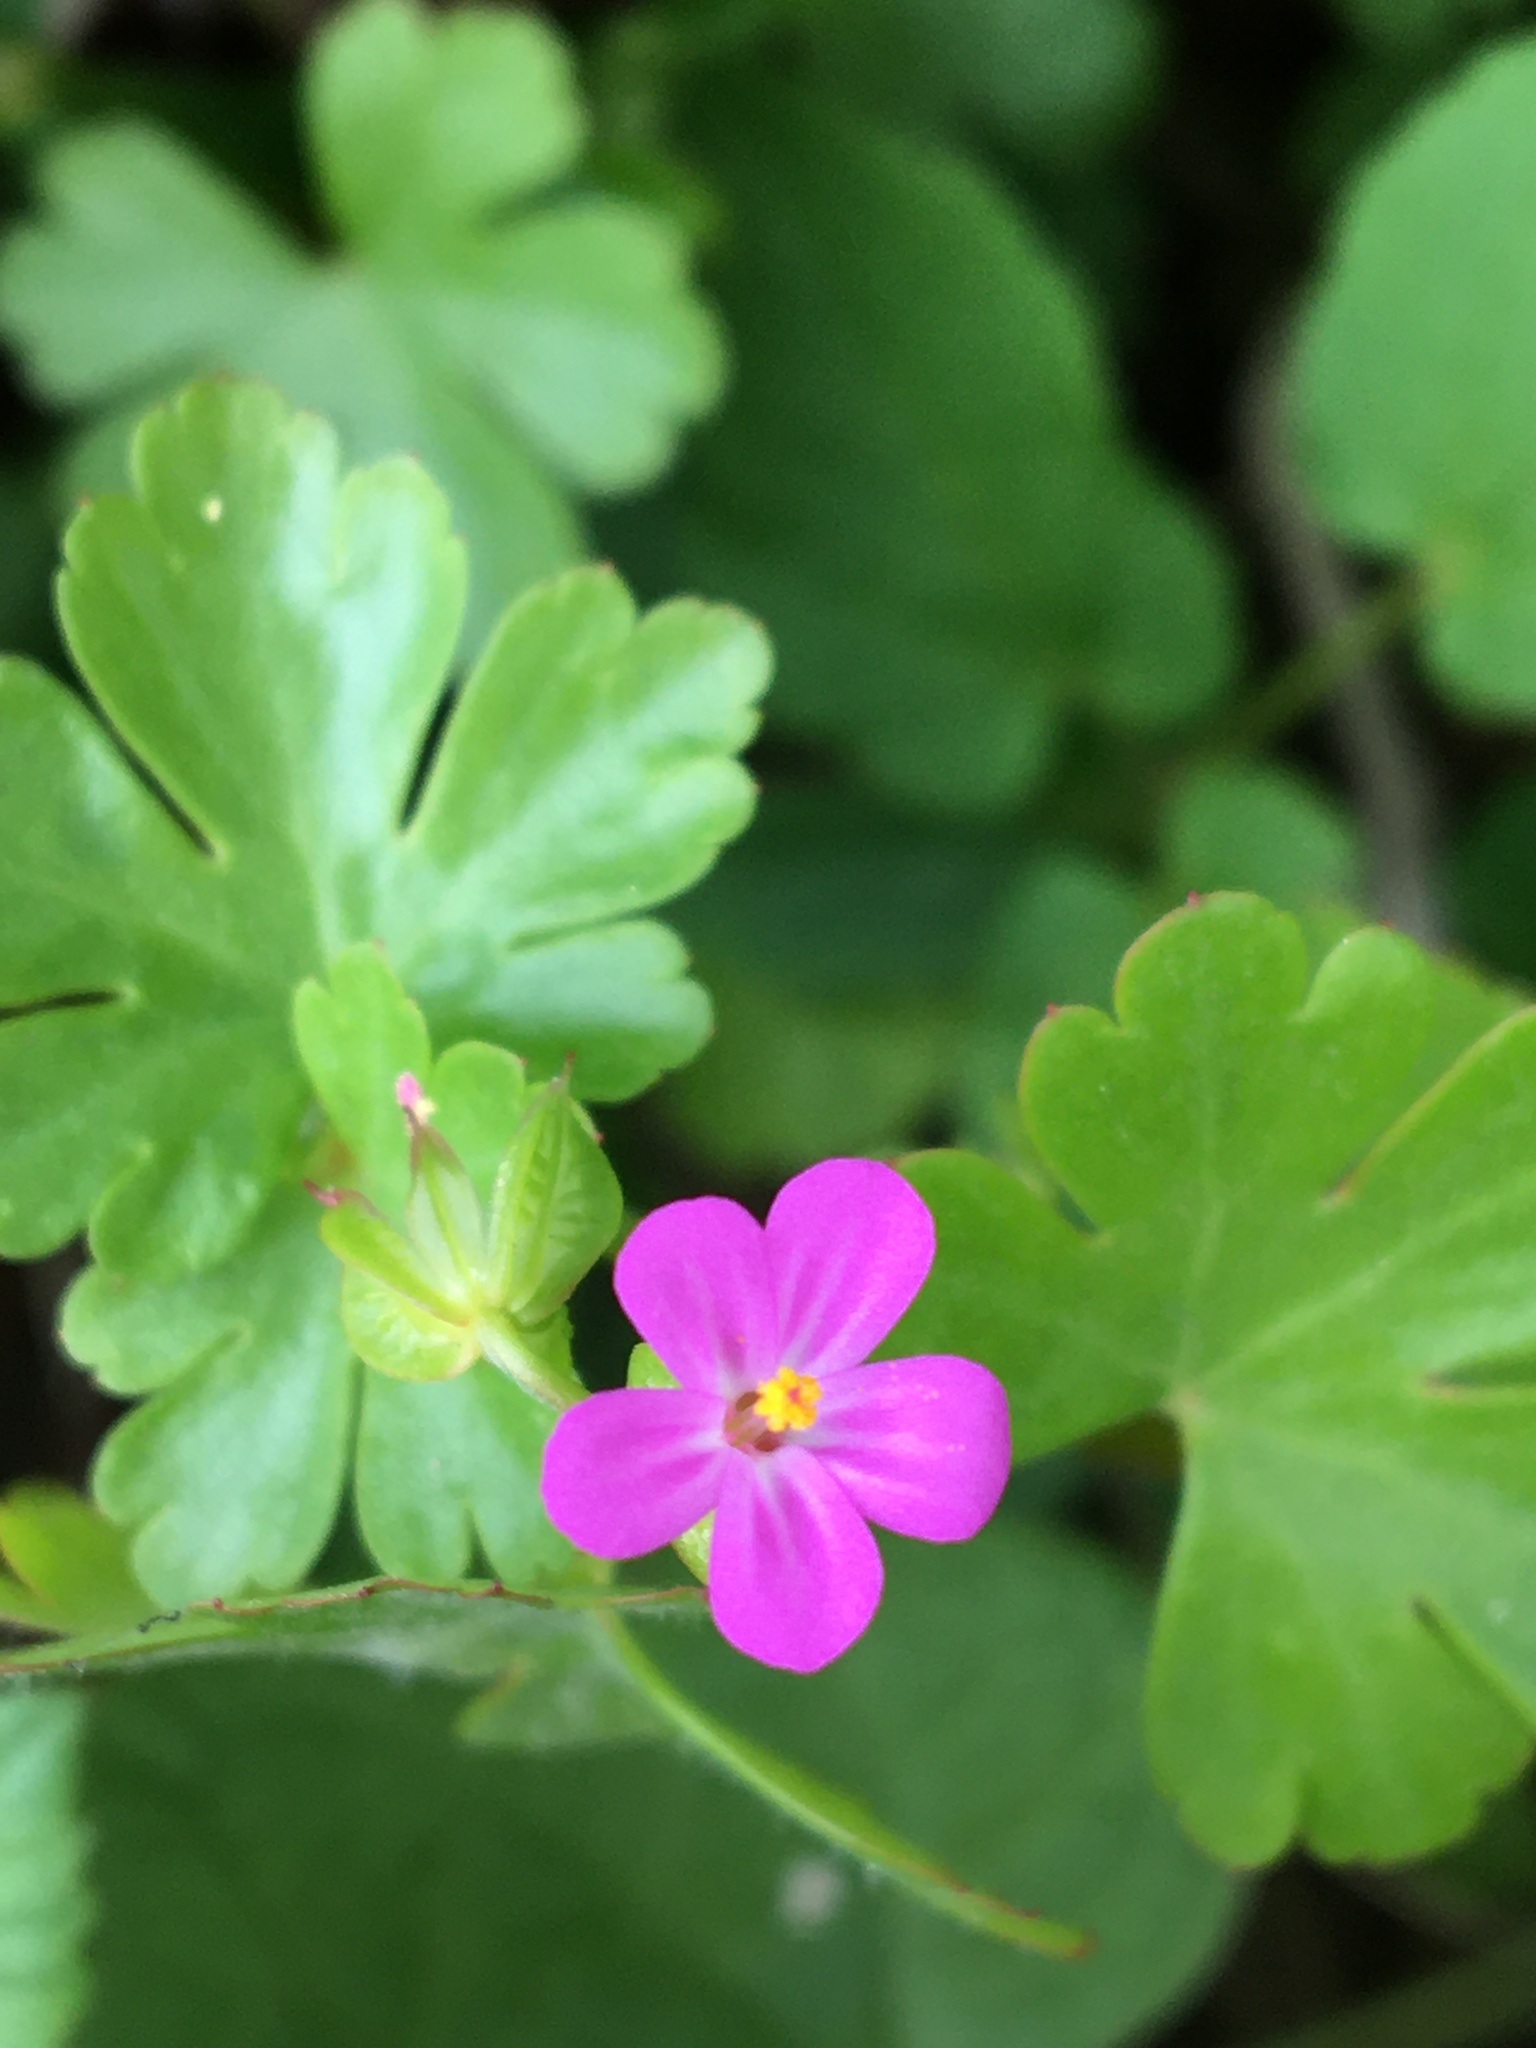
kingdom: Plantae
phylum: Tracheophyta
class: Magnoliopsida
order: Geraniales
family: Geraniaceae
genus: Geranium
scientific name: Geranium lucidum
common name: Shining crane's-bill
